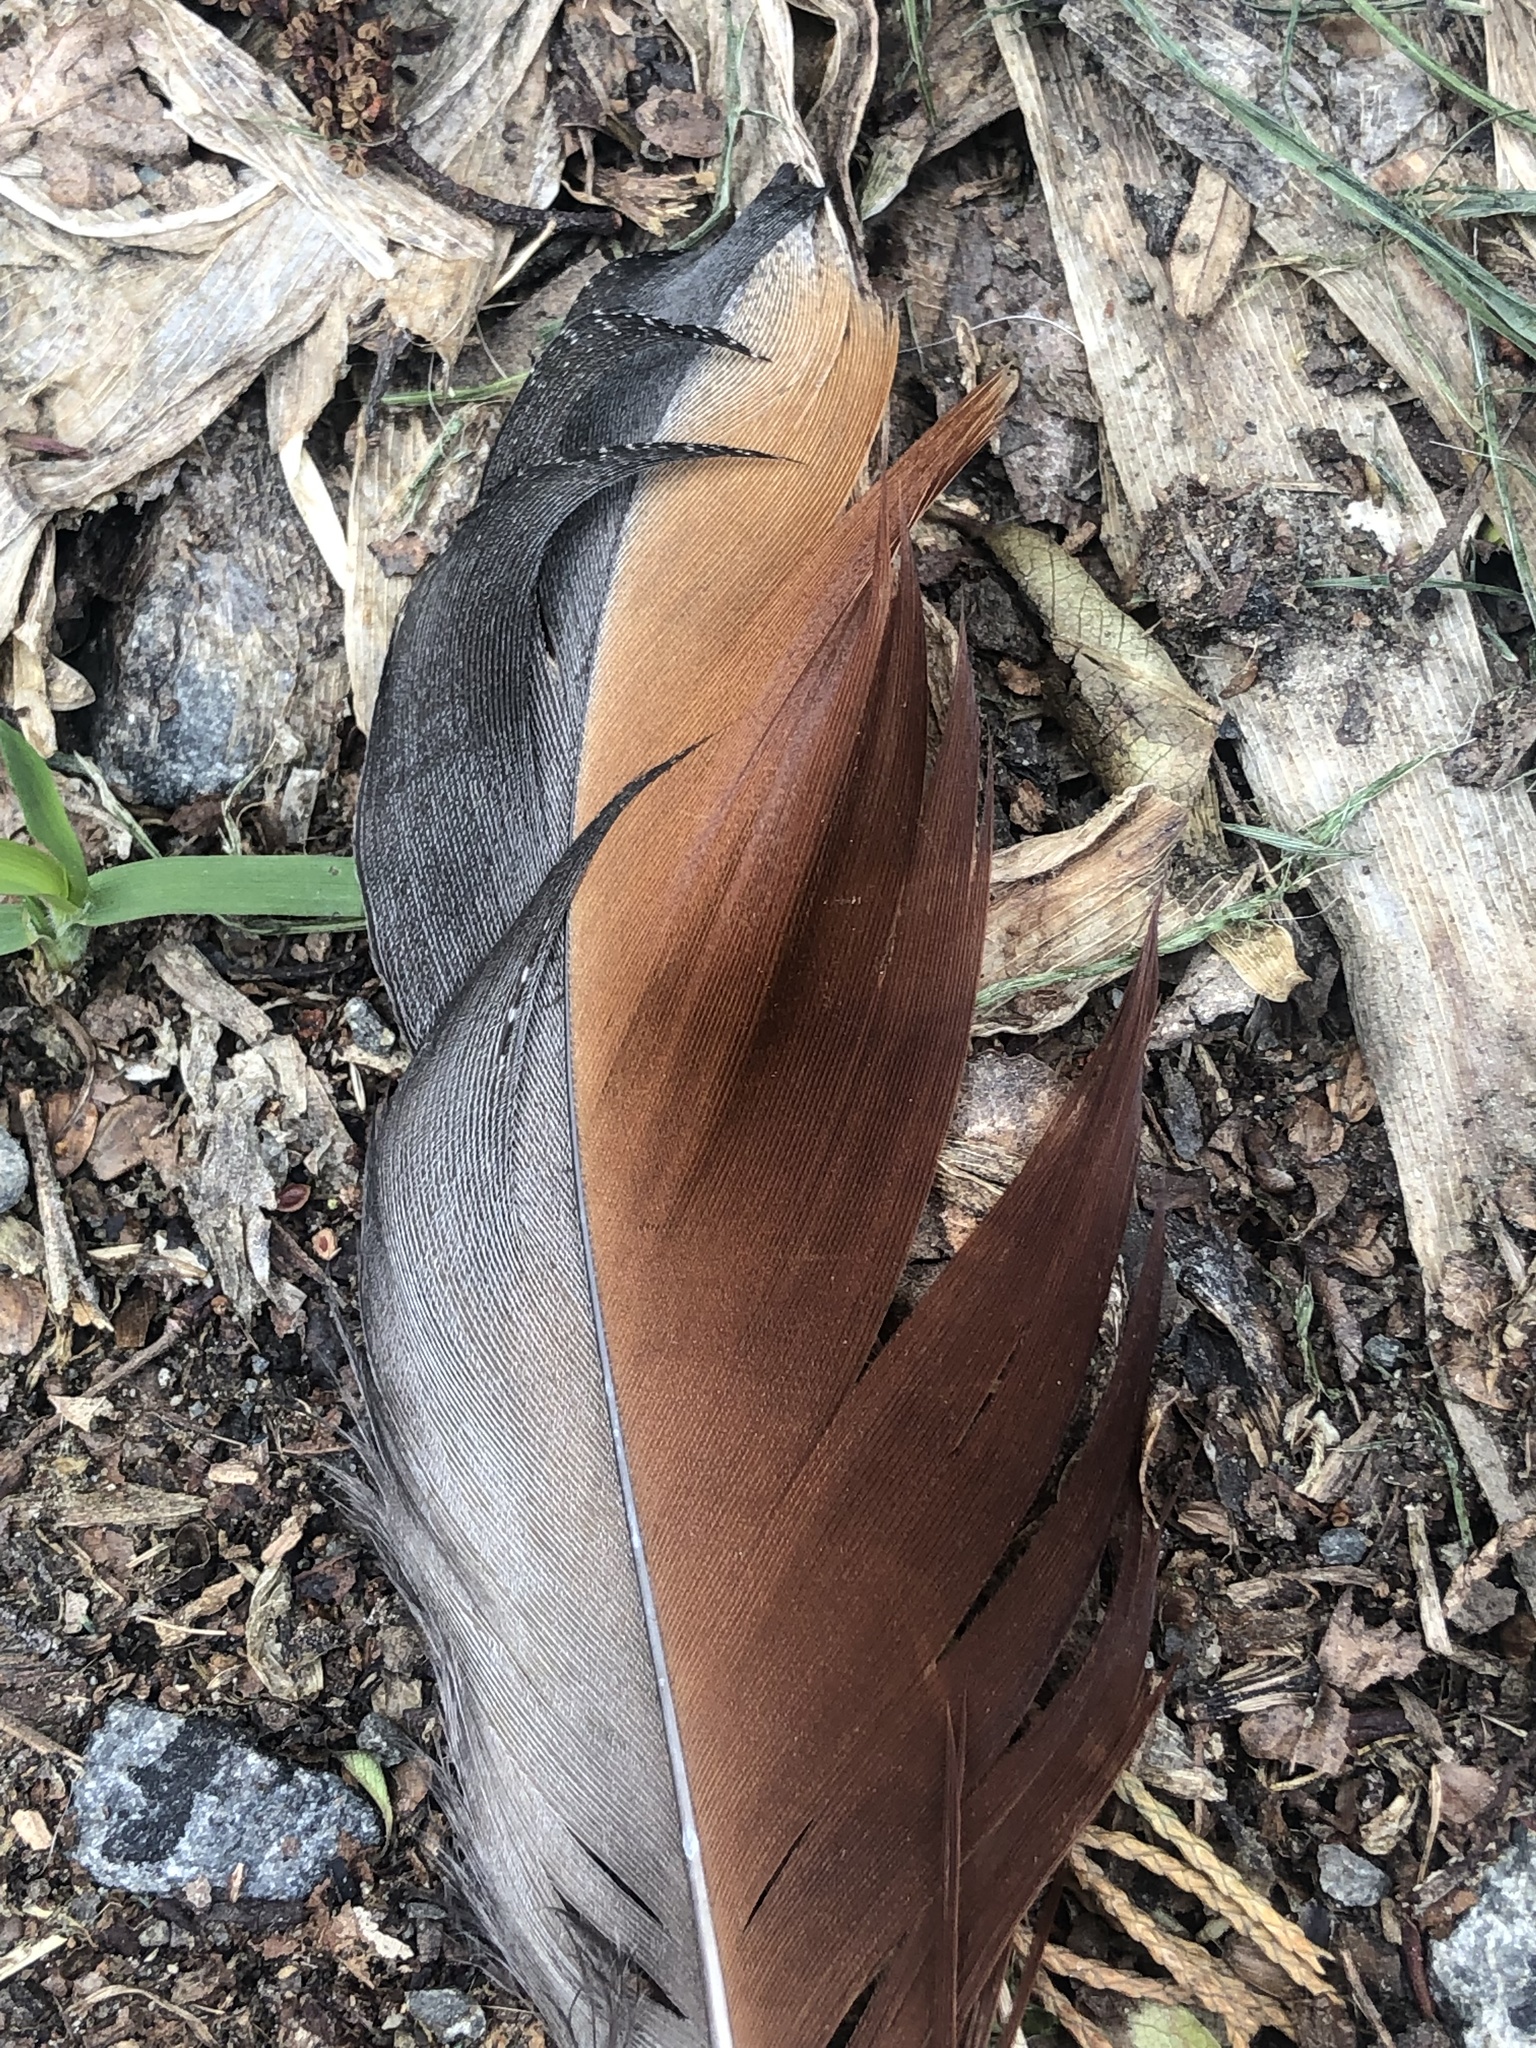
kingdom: Animalia
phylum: Chordata
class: Aves
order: Anseriformes
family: Anatidae
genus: Tadorna
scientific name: Tadorna variegata
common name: Paradise shelduck
